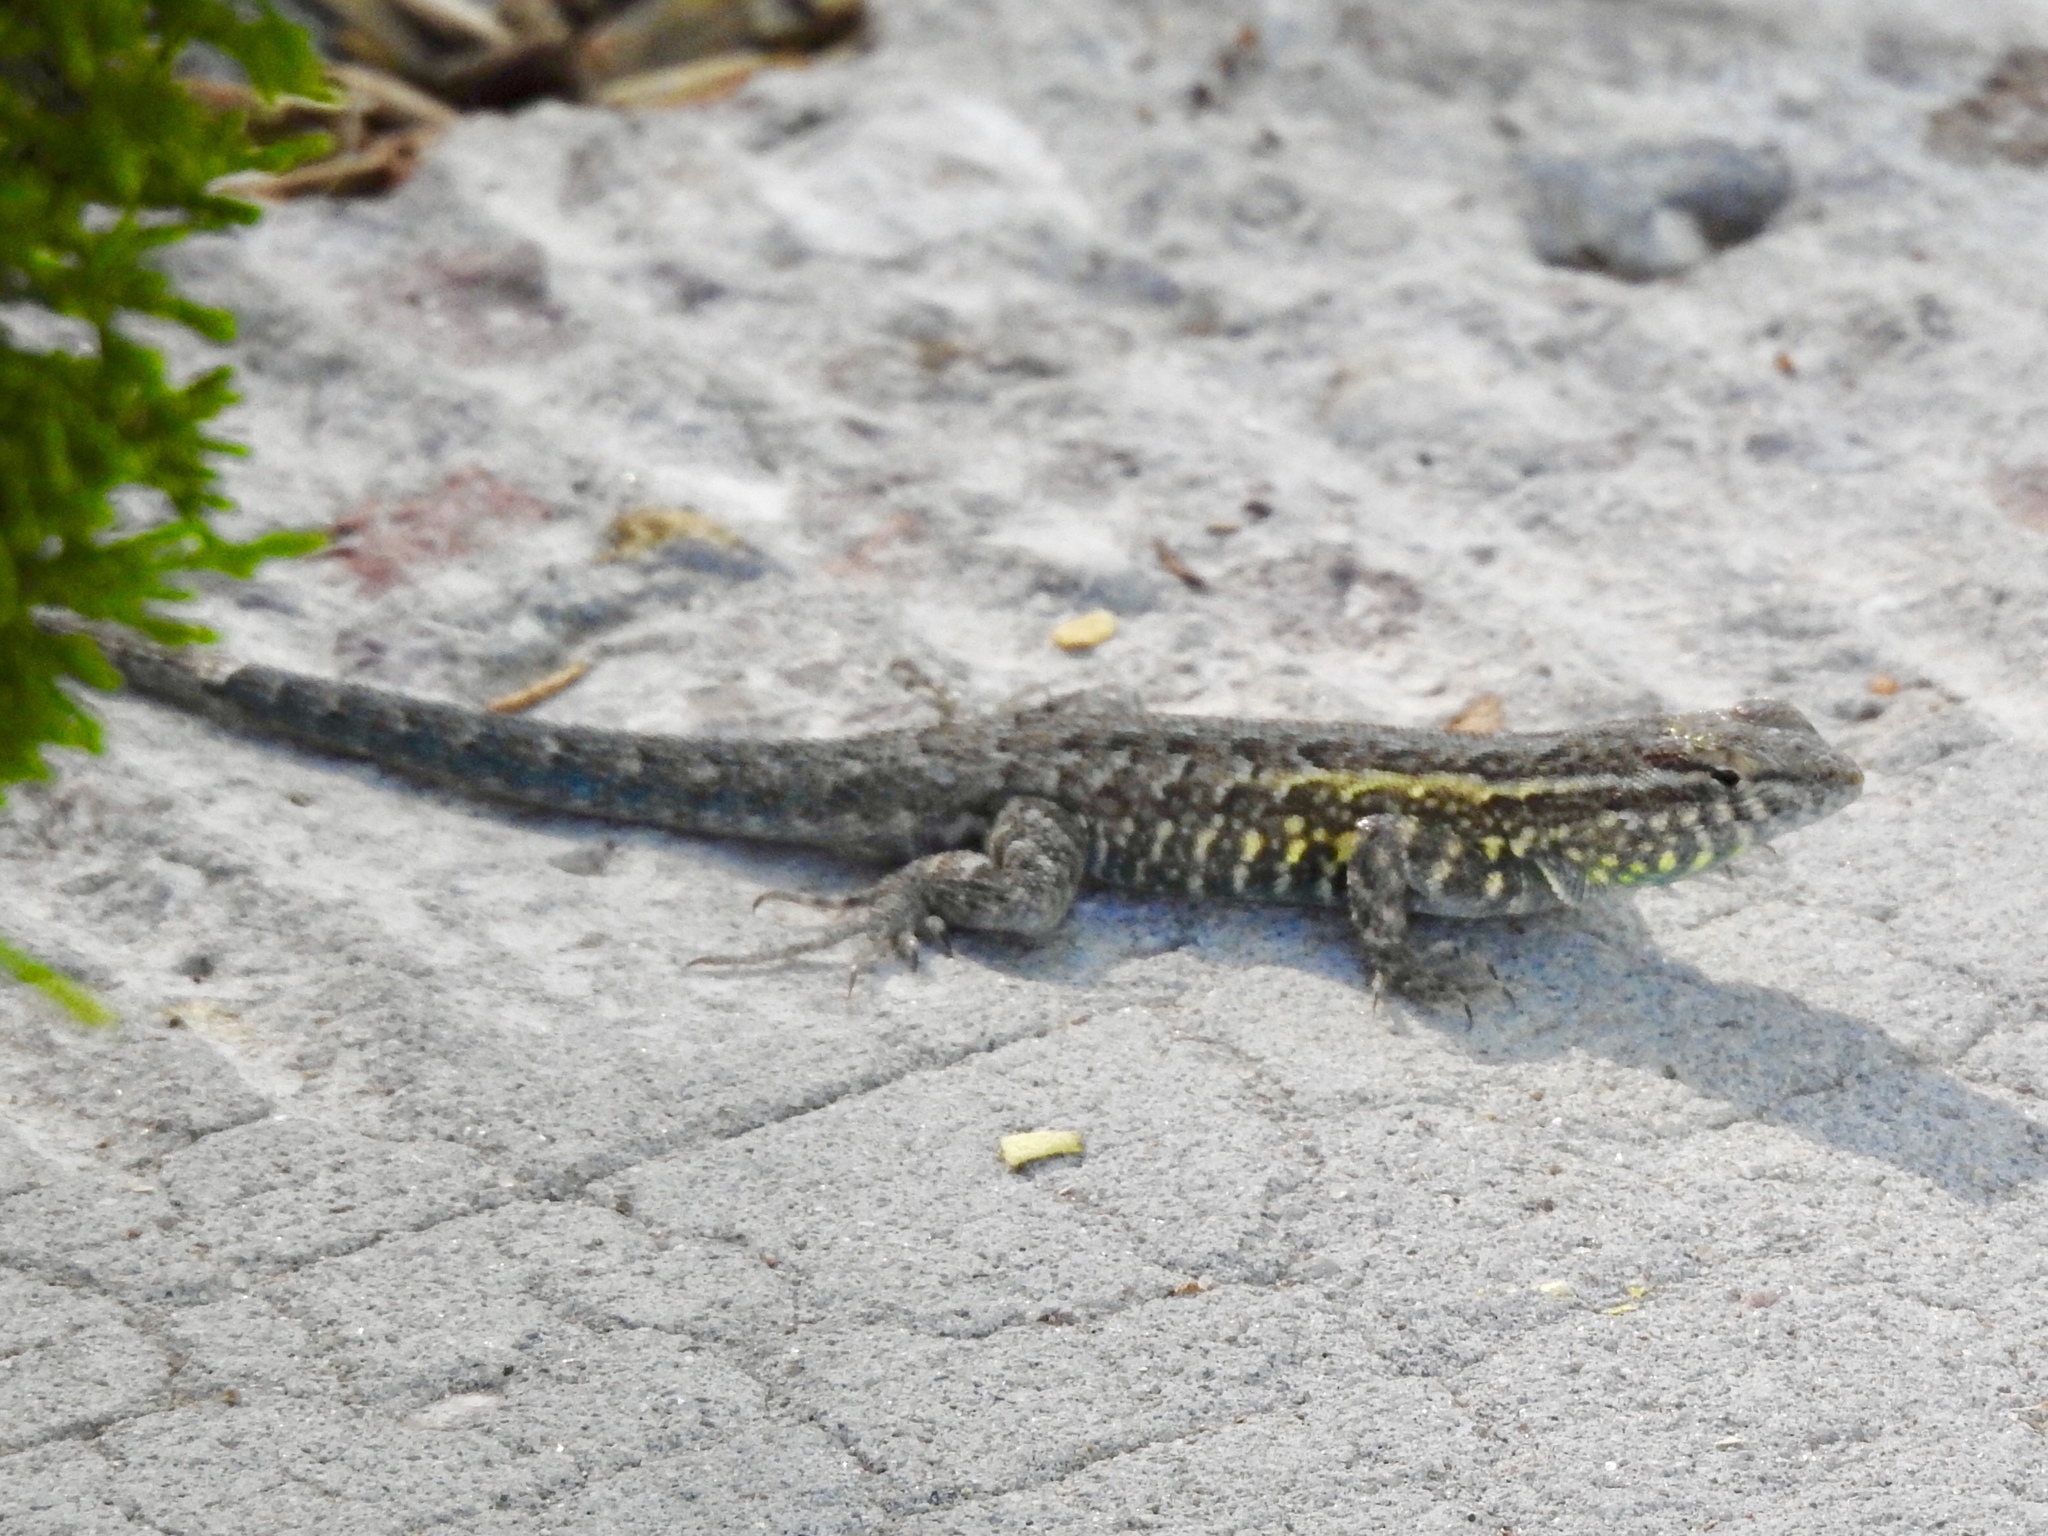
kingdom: Animalia
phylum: Chordata
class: Squamata
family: Phrynosomatidae
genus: Uta
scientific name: Uta stansburiana
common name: Side-blotched lizard
